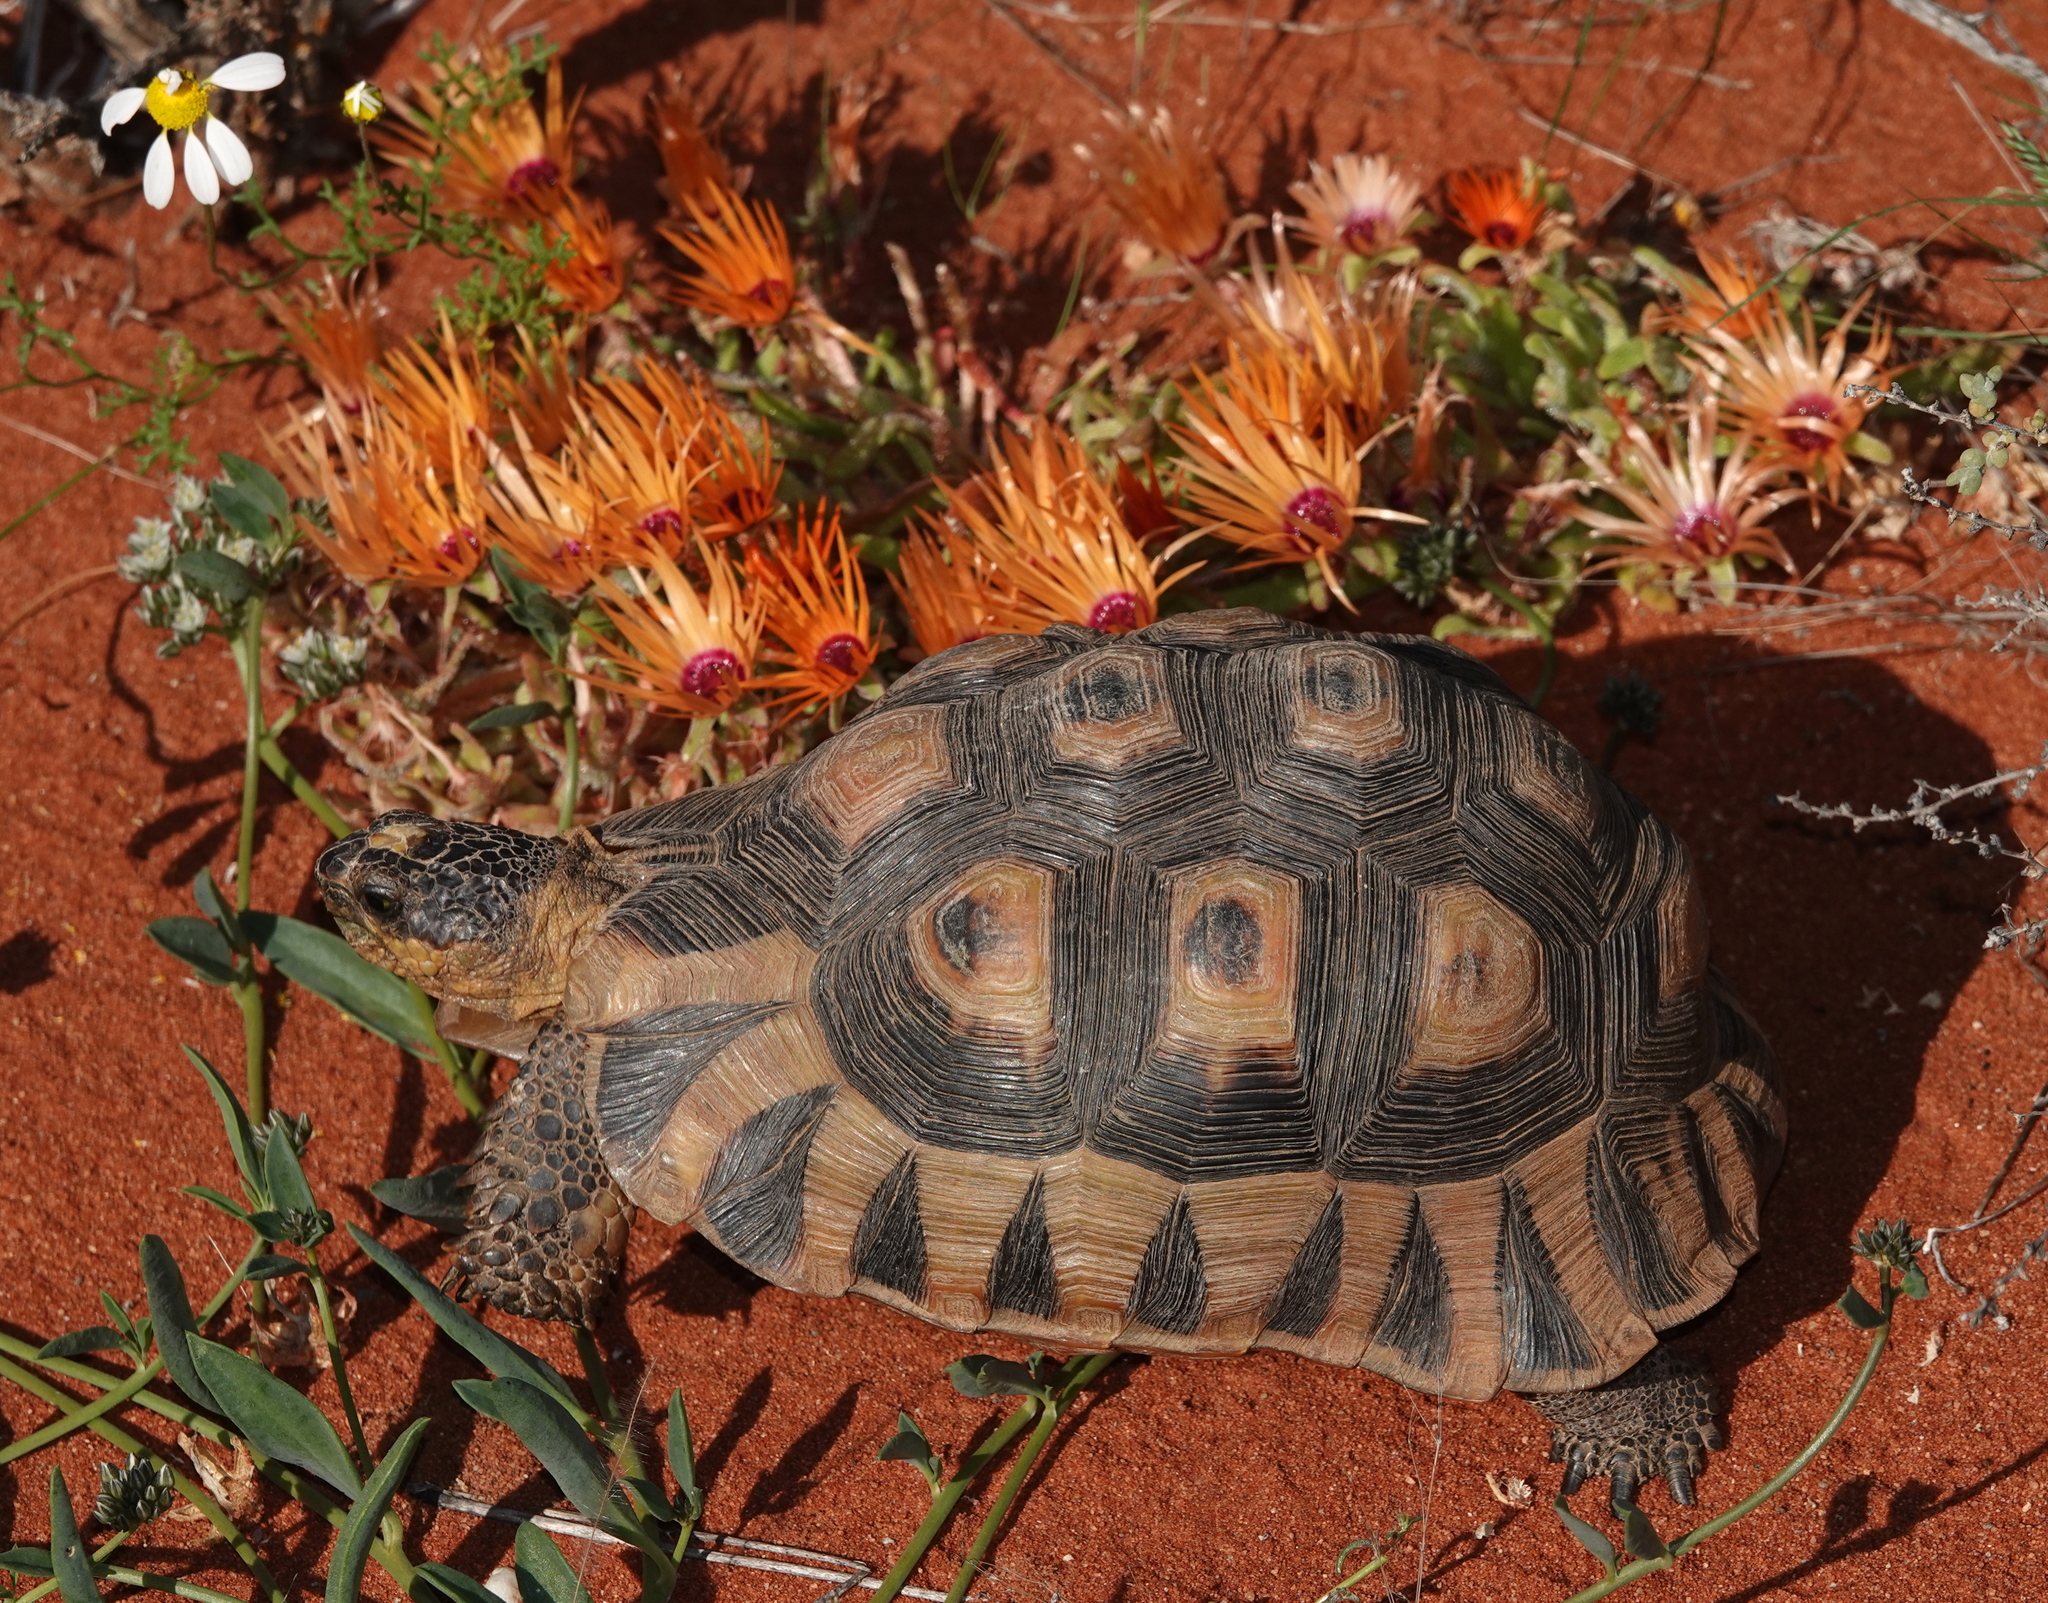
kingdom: Animalia
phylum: Chordata
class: Testudines
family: Testudinidae
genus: Chersina
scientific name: Chersina angulata
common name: South african bowsprit tortoise
